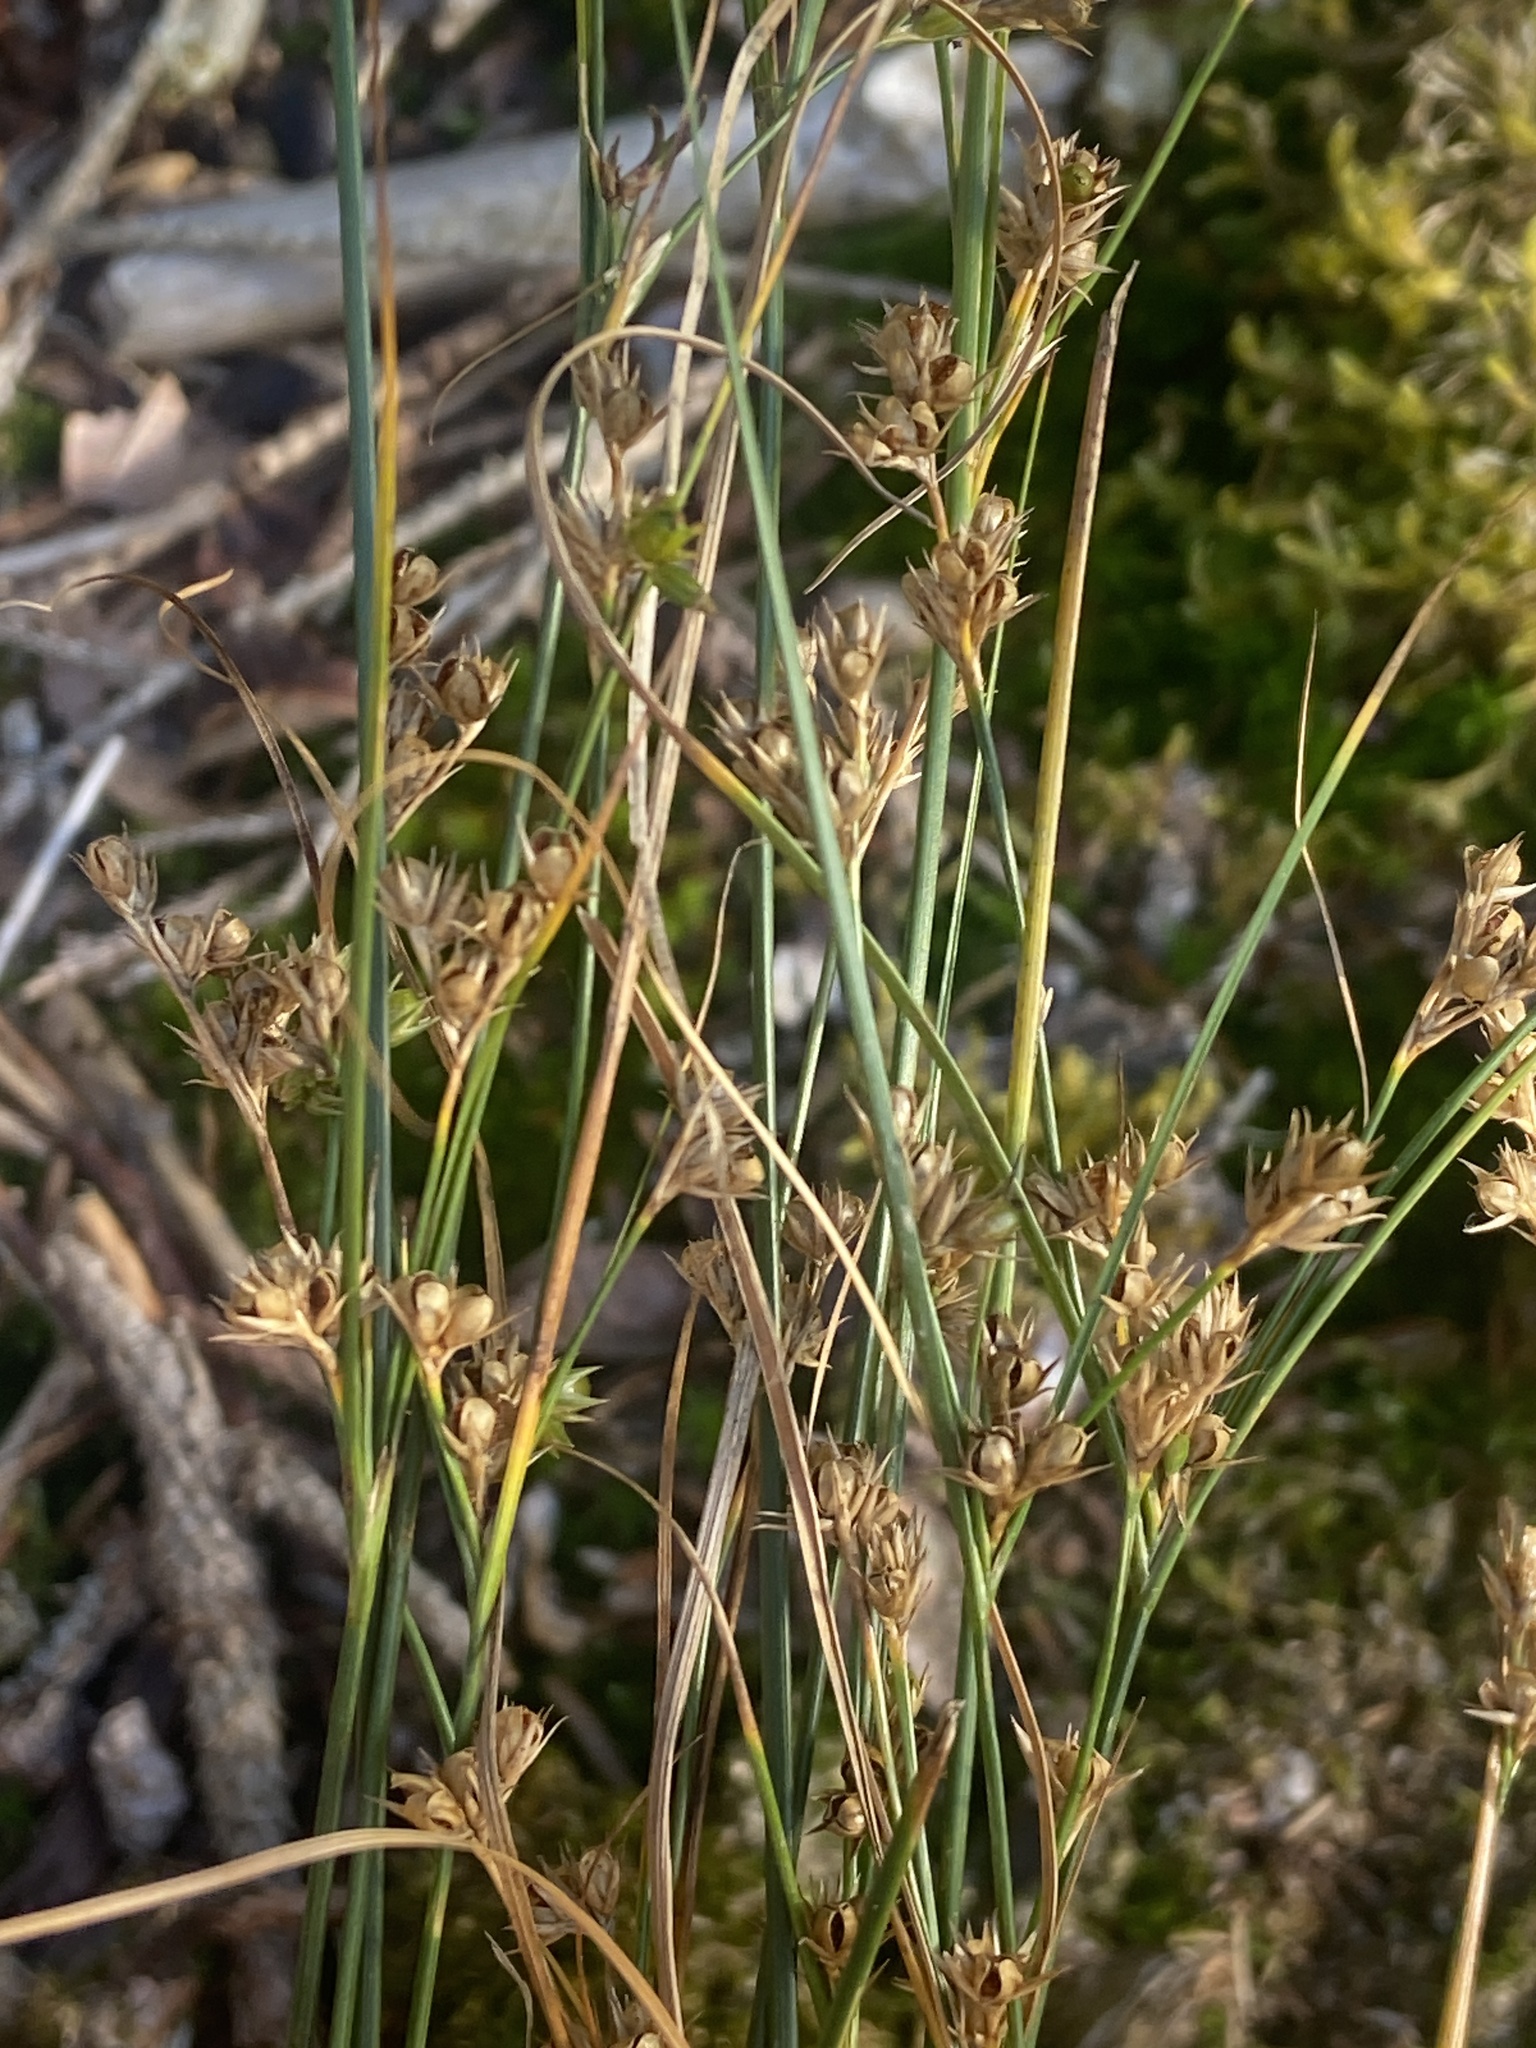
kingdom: Plantae
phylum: Tracheophyta
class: Liliopsida
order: Poales
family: Juncaceae
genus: Juncus
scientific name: Juncus tenuis
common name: Slender rush
